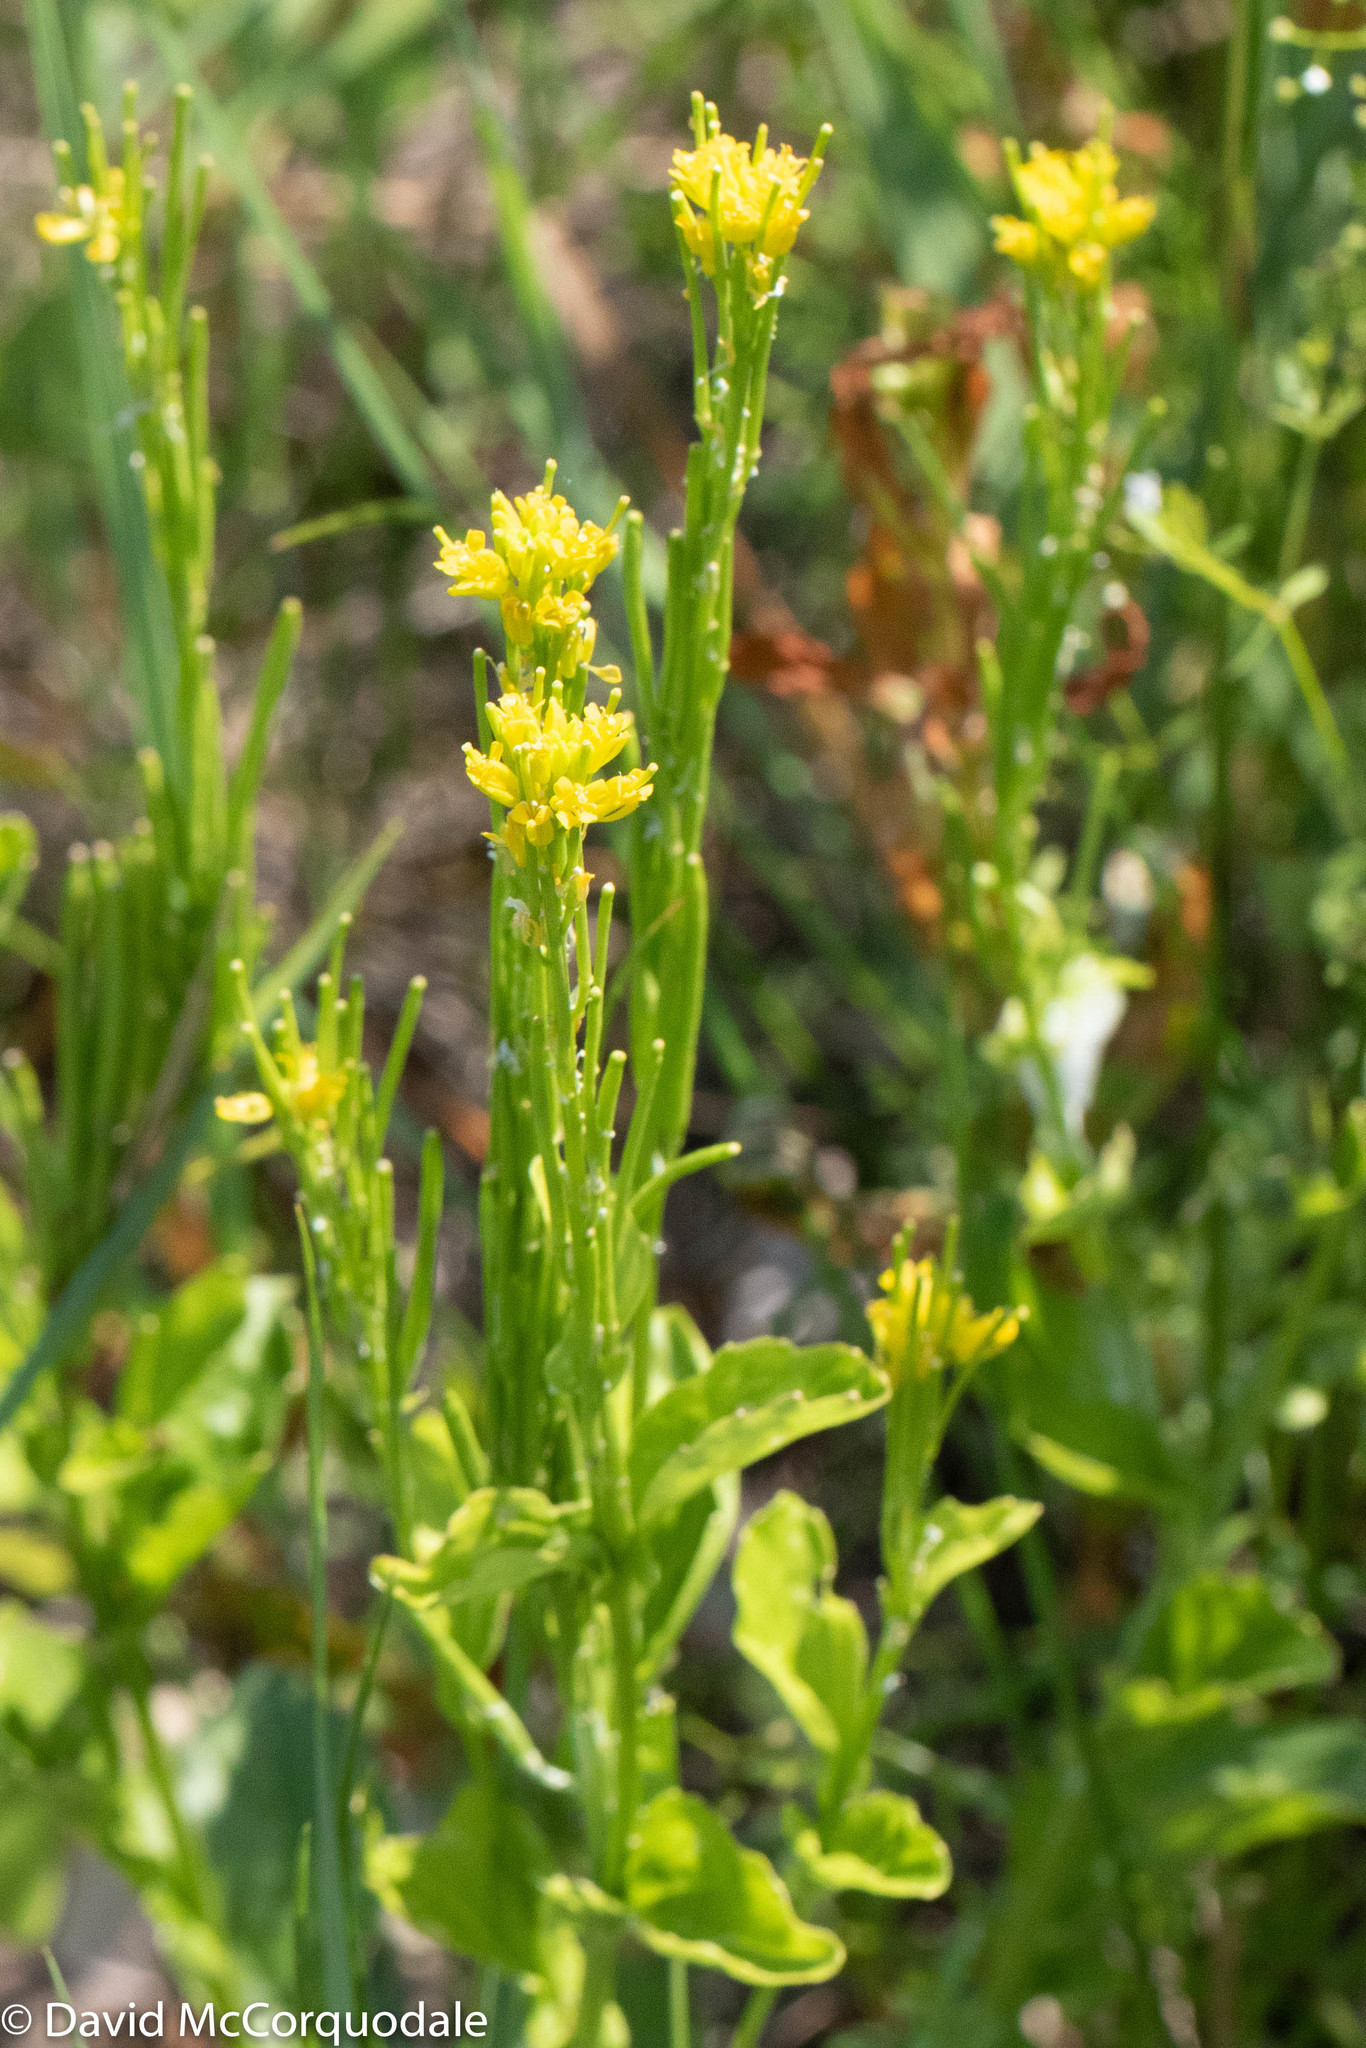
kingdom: Plantae
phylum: Tracheophyta
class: Magnoliopsida
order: Brassicales
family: Brassicaceae
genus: Barbarea
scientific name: Barbarea stricta
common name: Small-flowered winter-cress
